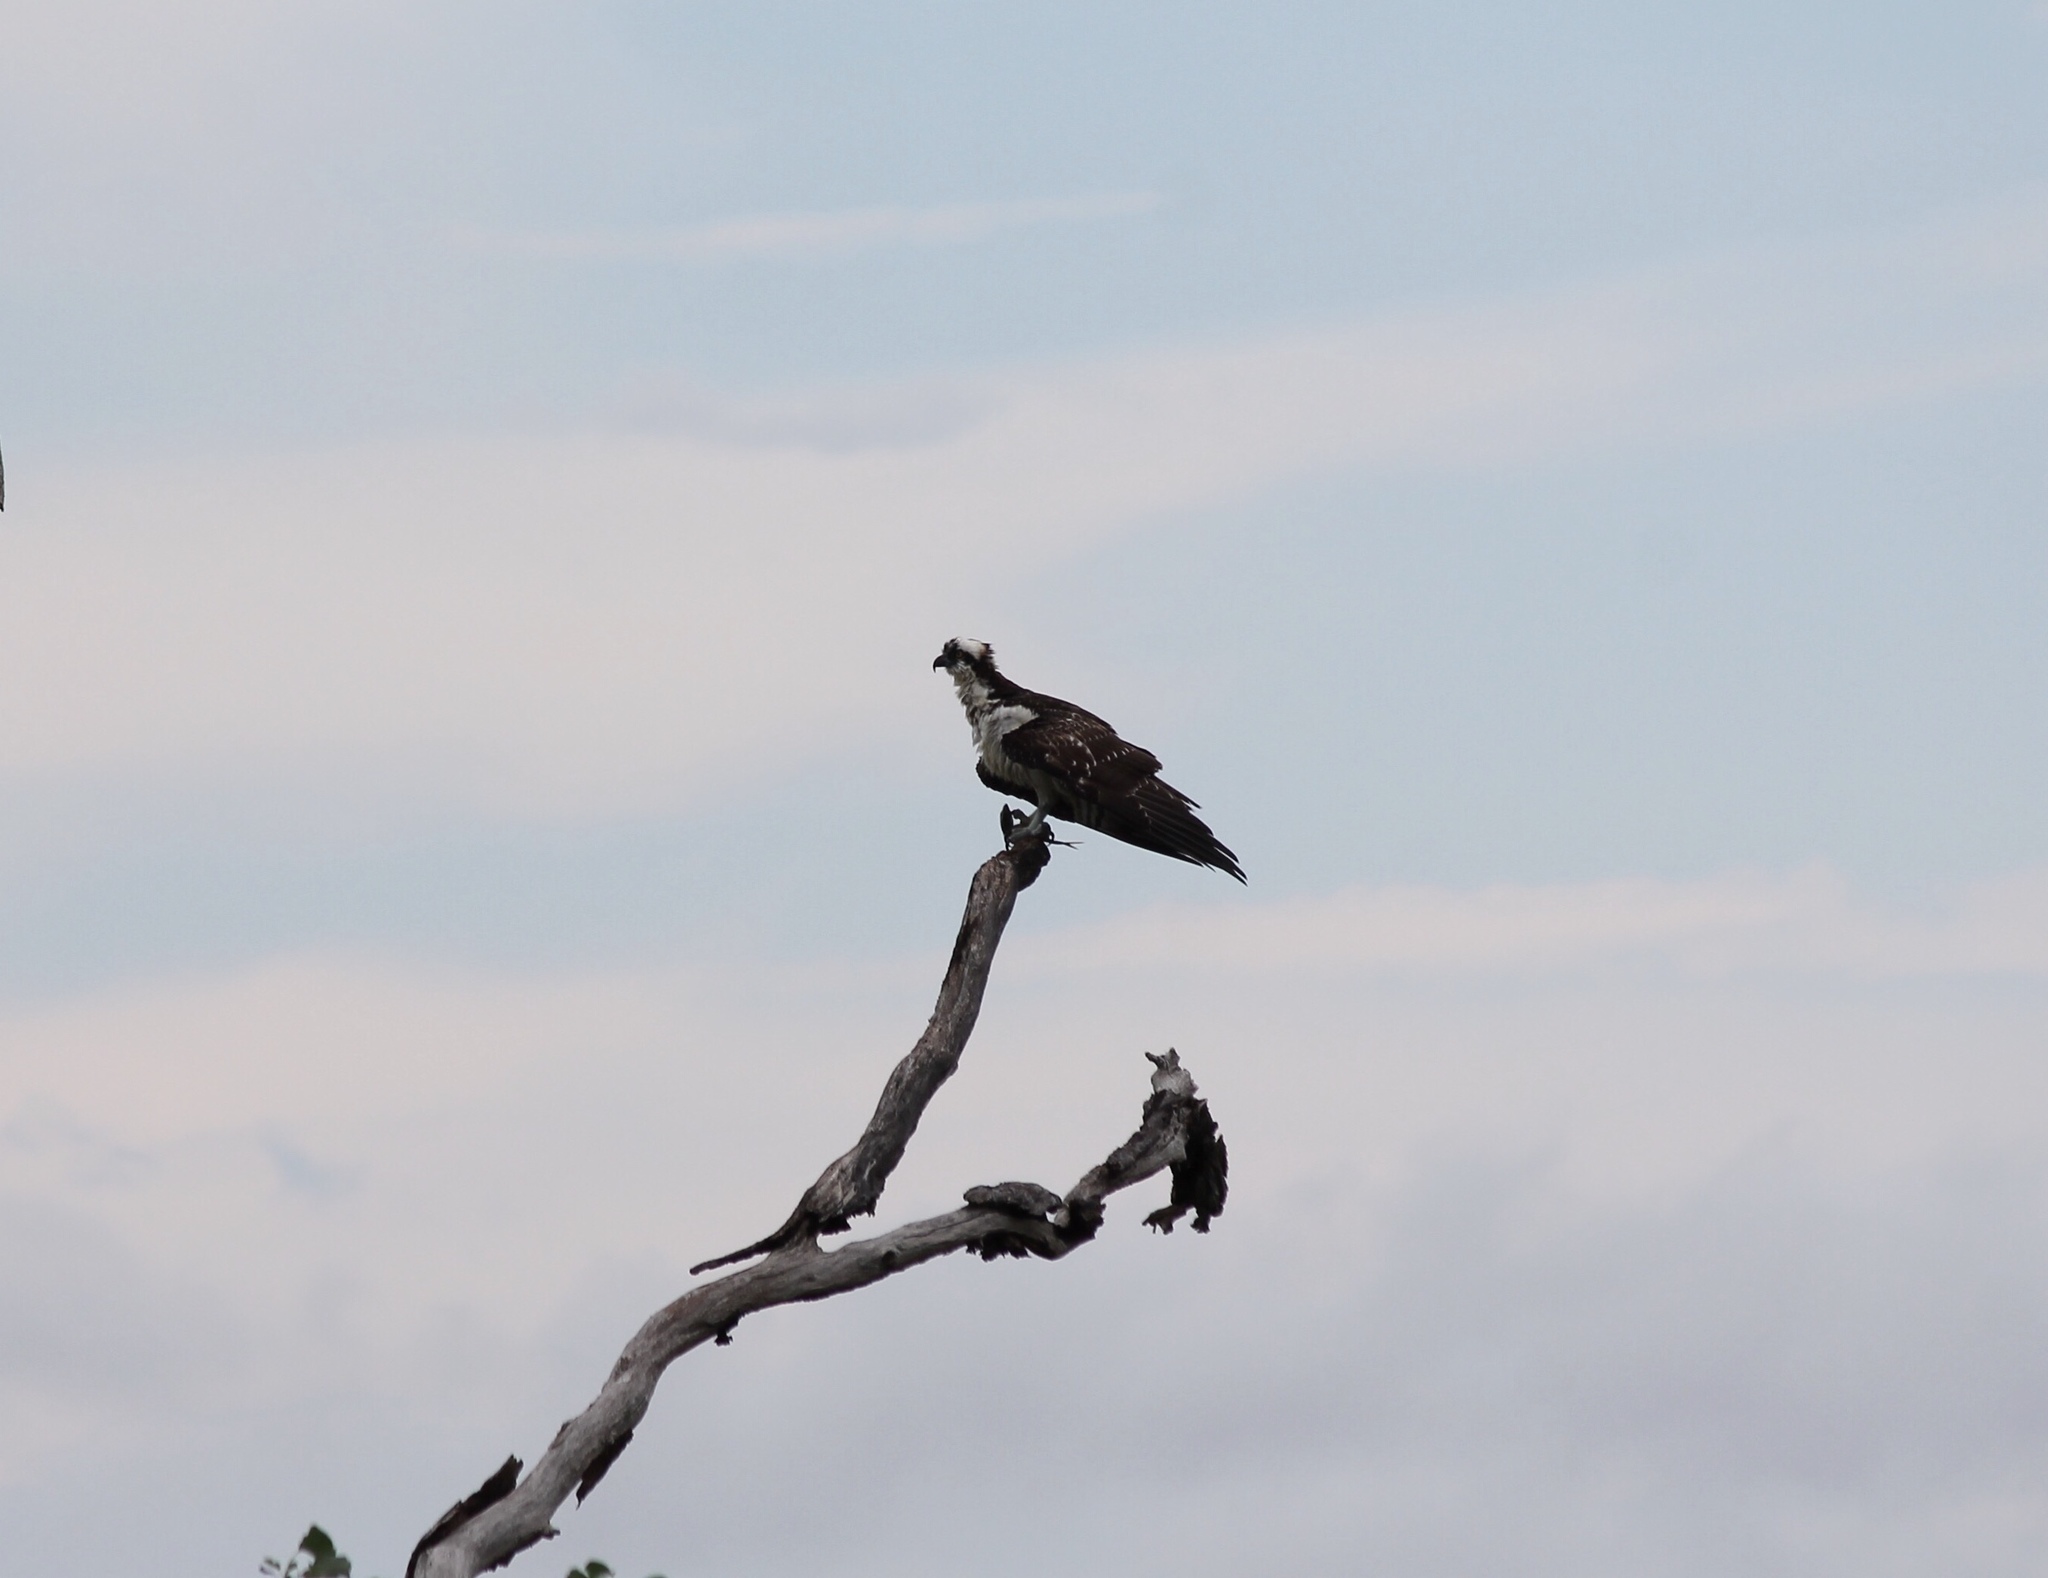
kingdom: Animalia
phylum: Chordata
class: Aves
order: Accipitriformes
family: Pandionidae
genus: Pandion
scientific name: Pandion haliaetus
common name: Osprey
